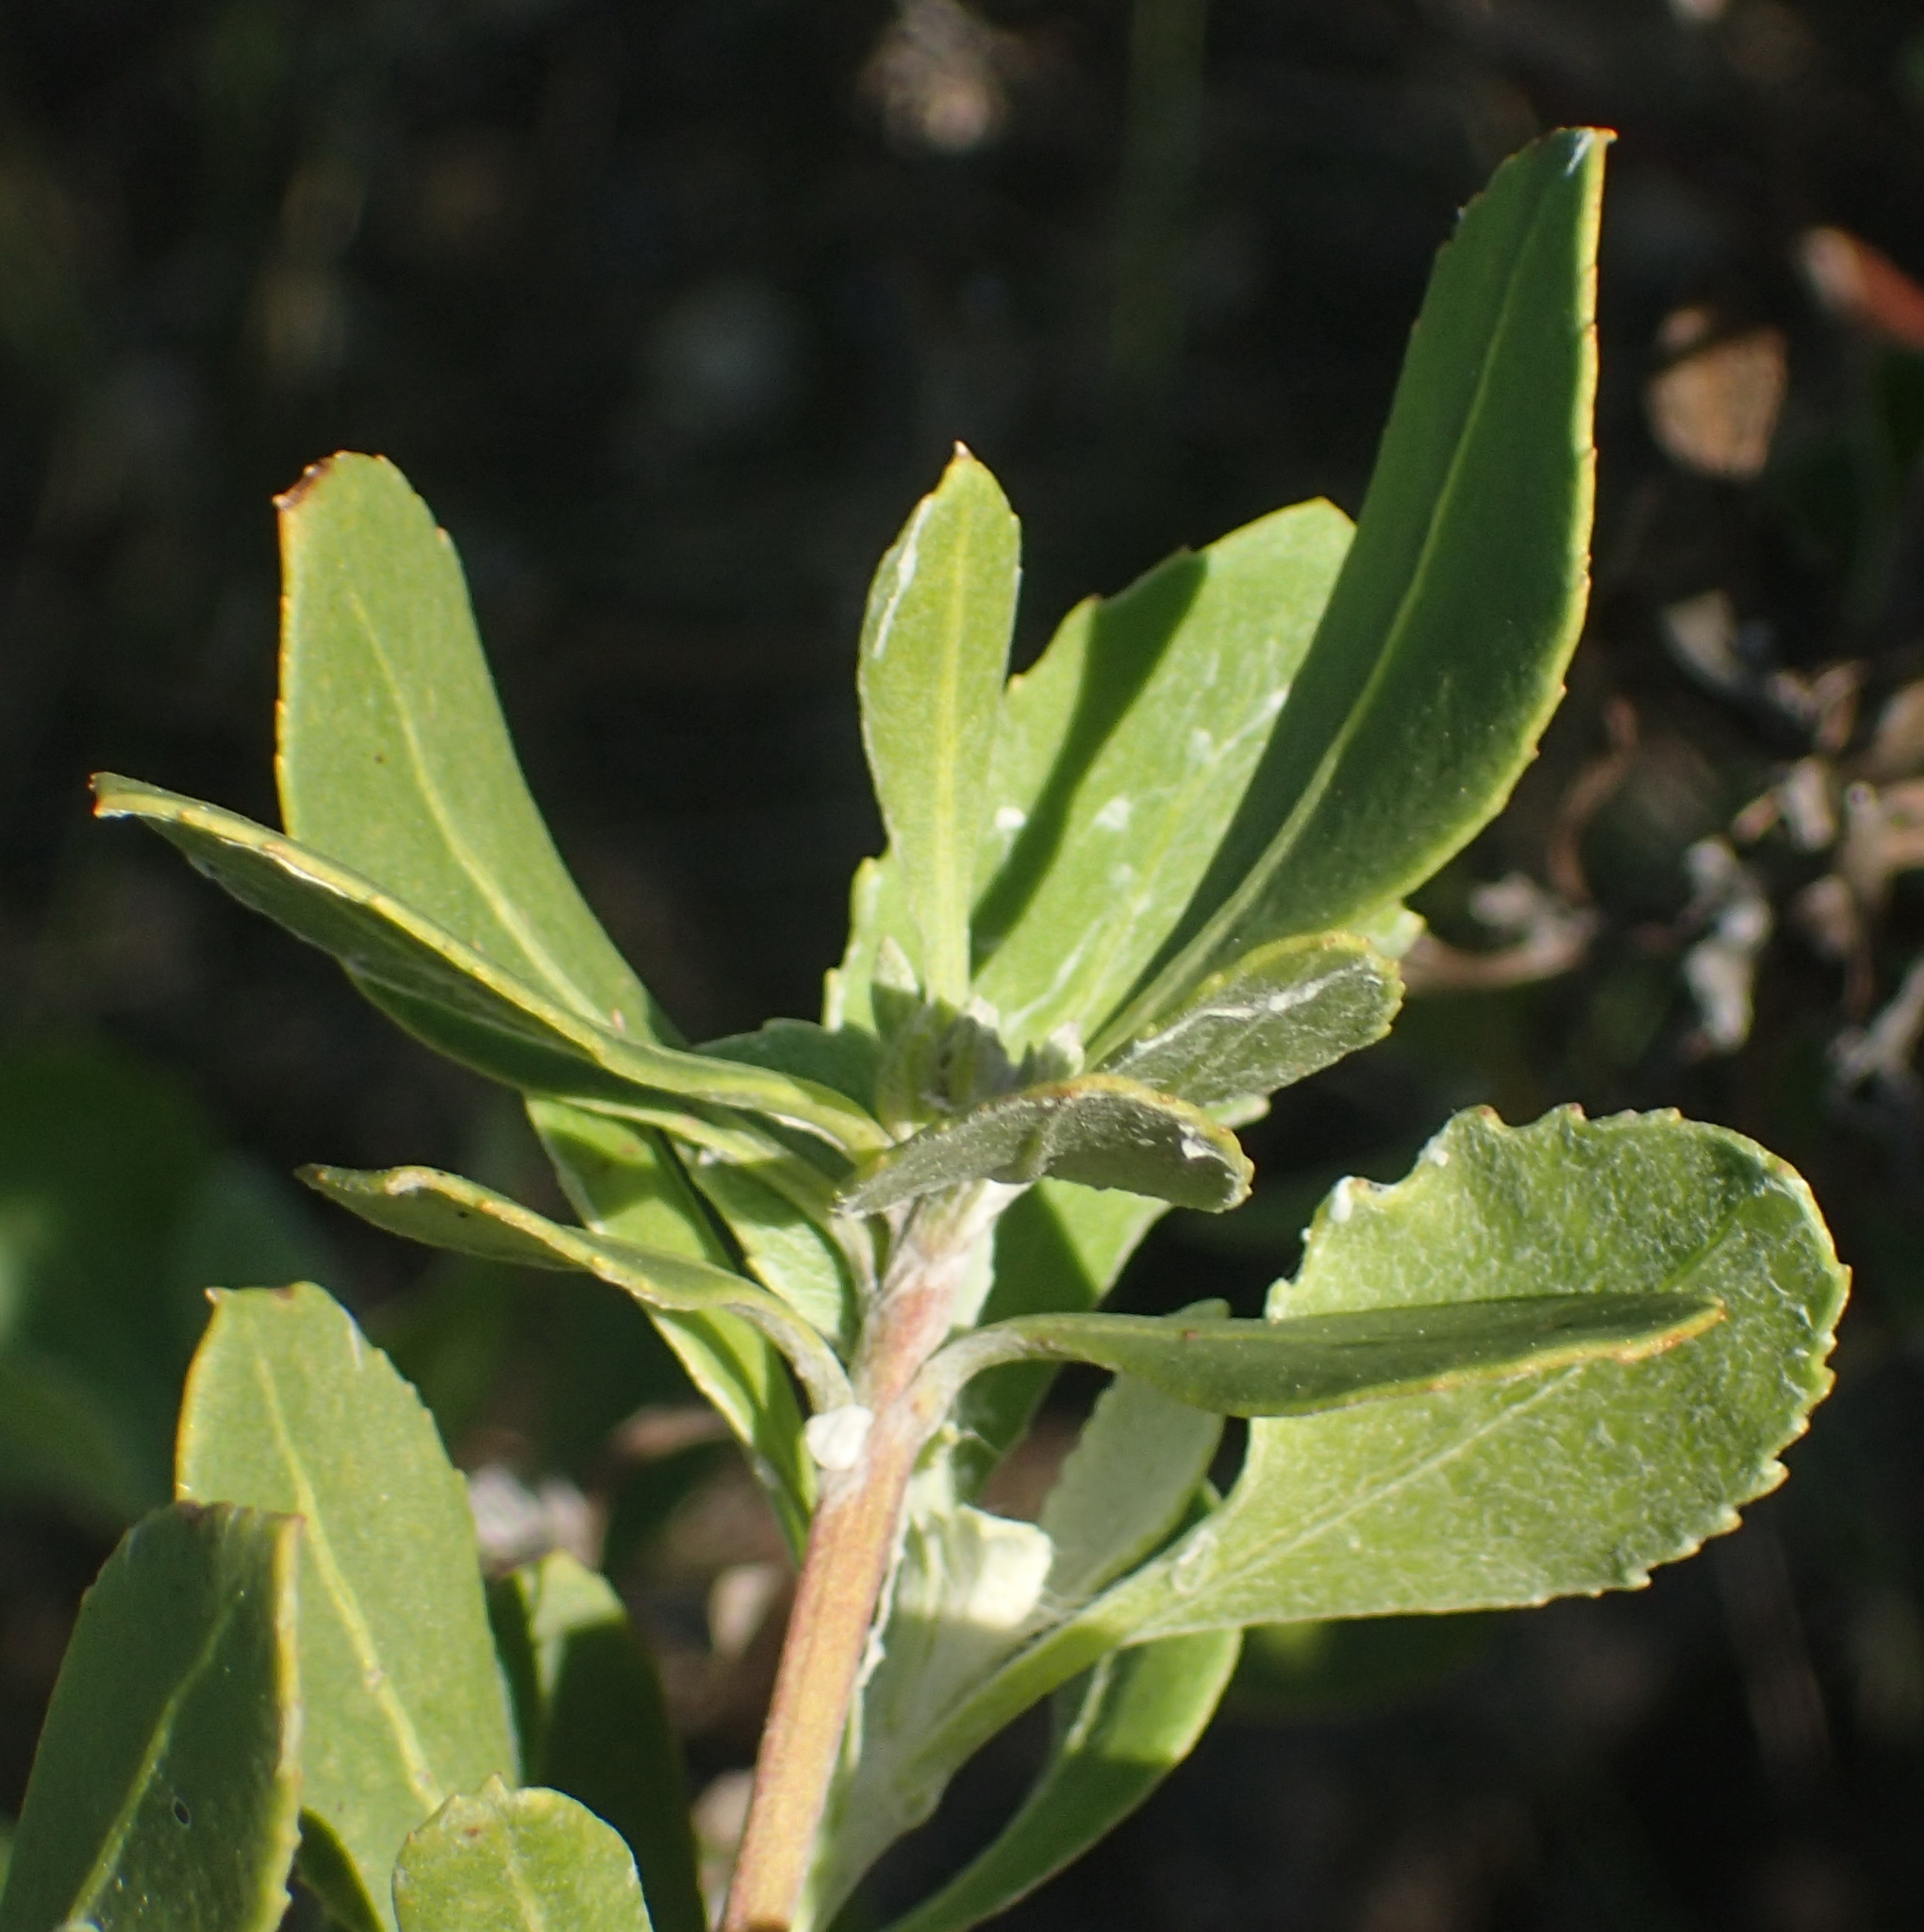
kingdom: Plantae
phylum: Tracheophyta
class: Magnoliopsida
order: Asterales
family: Asteraceae
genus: Osteospermum
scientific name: Osteospermum moniliferum
